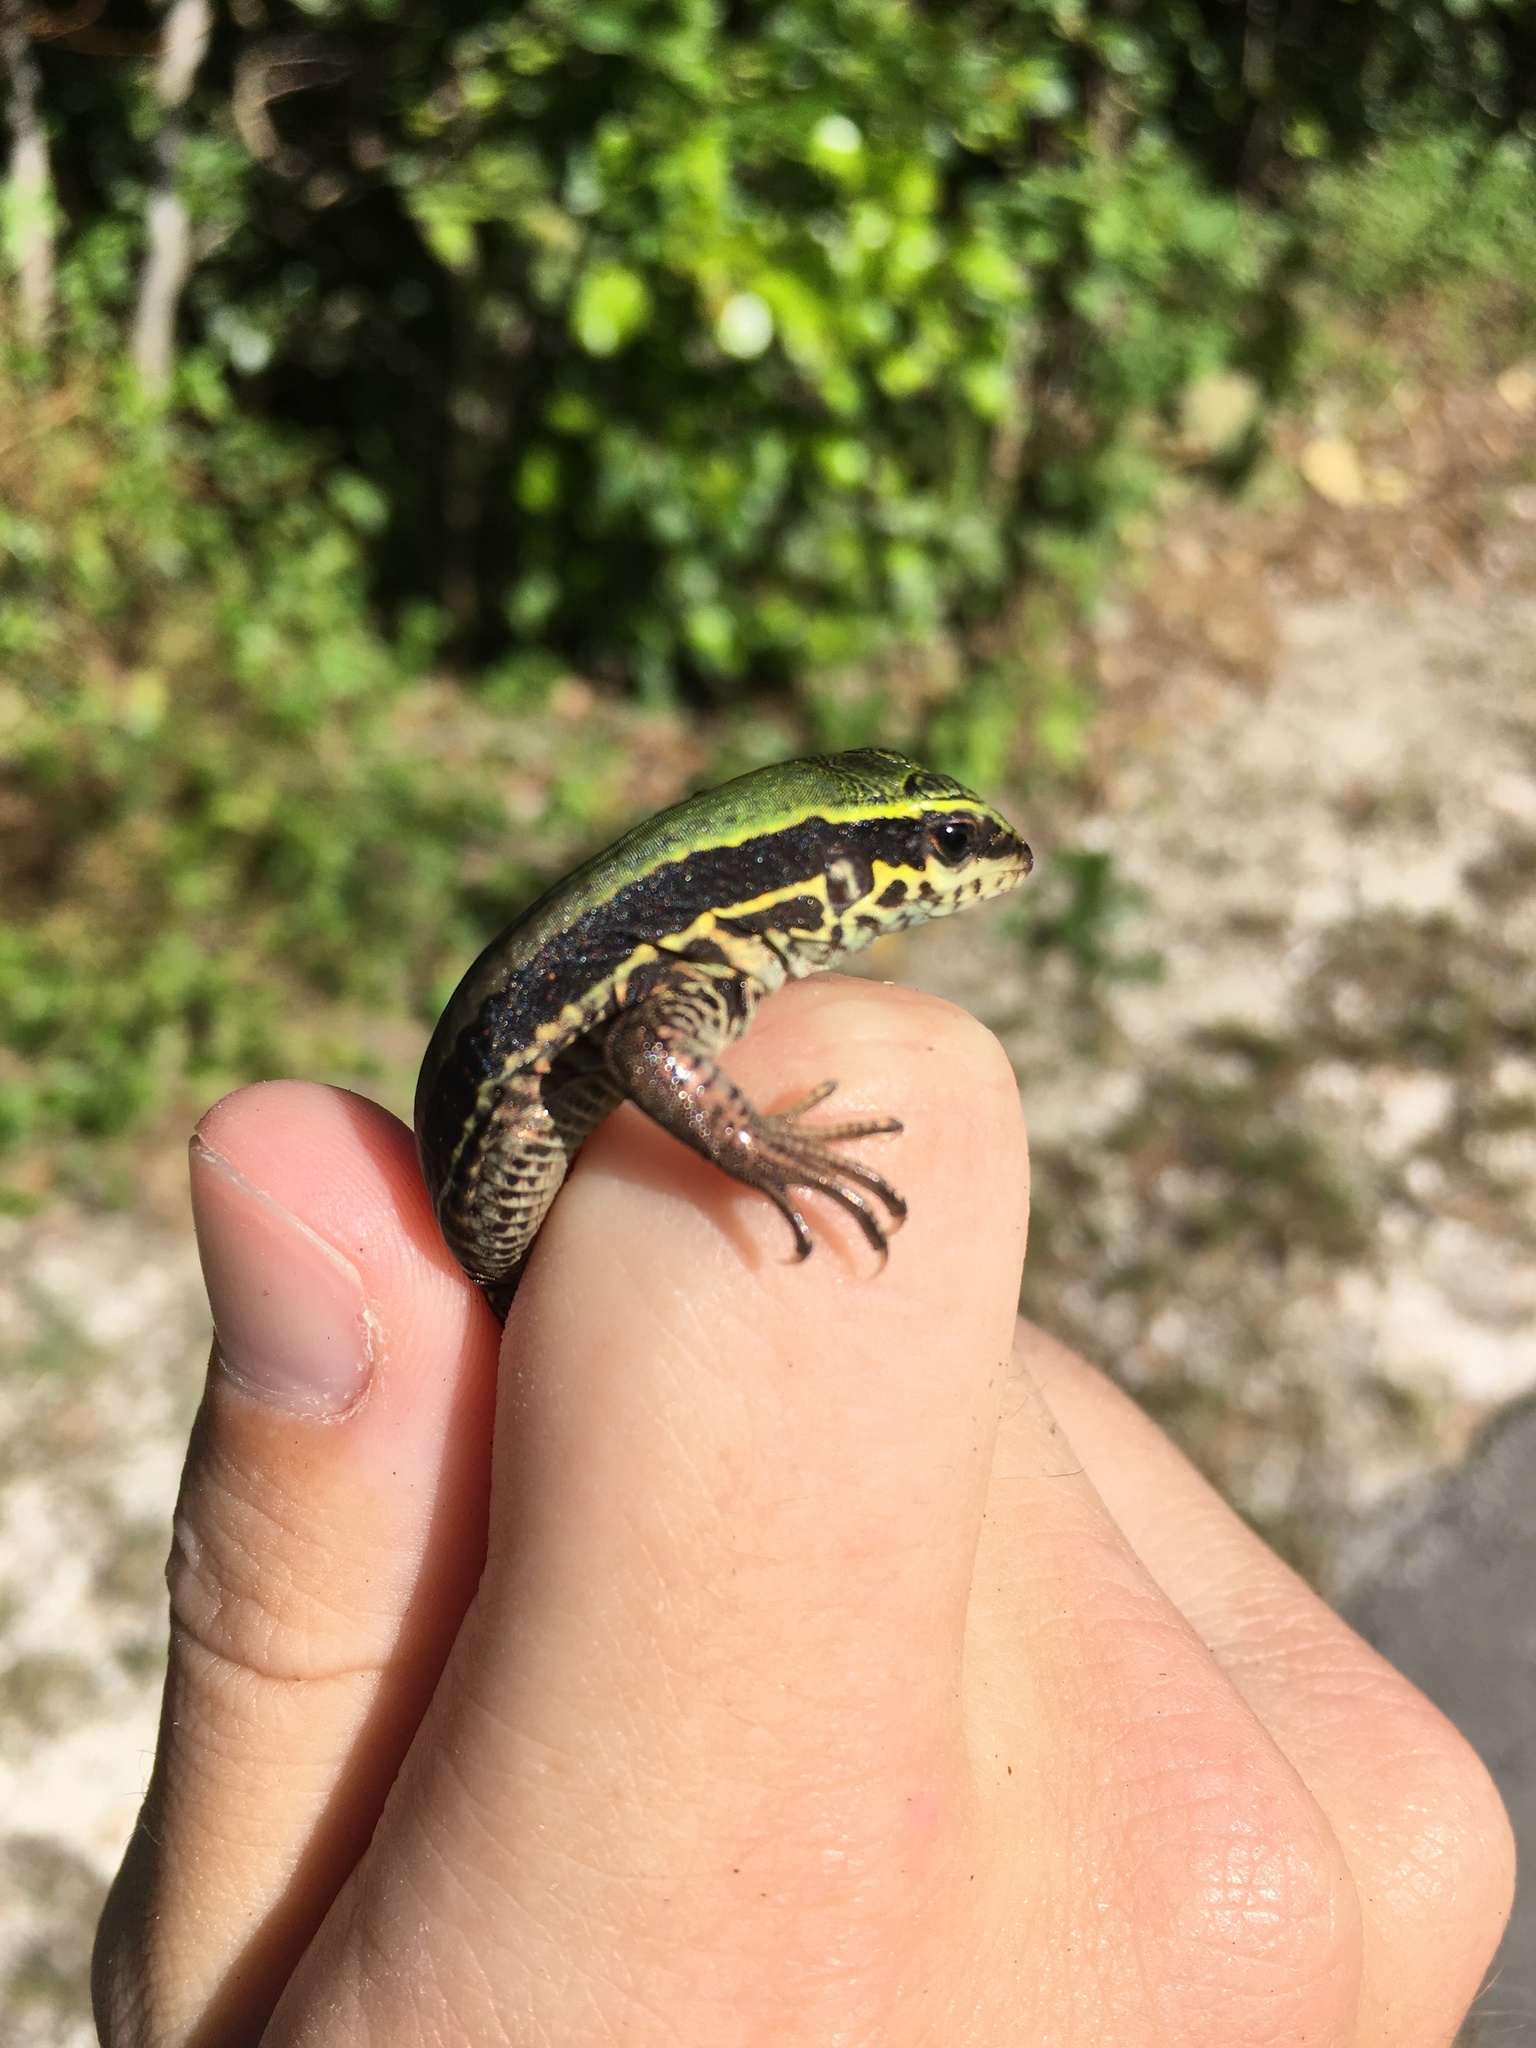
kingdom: Animalia
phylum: Chordata
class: Squamata
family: Teiidae
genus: Ameiva
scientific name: Ameiva ameiva
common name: Giant ameiva
